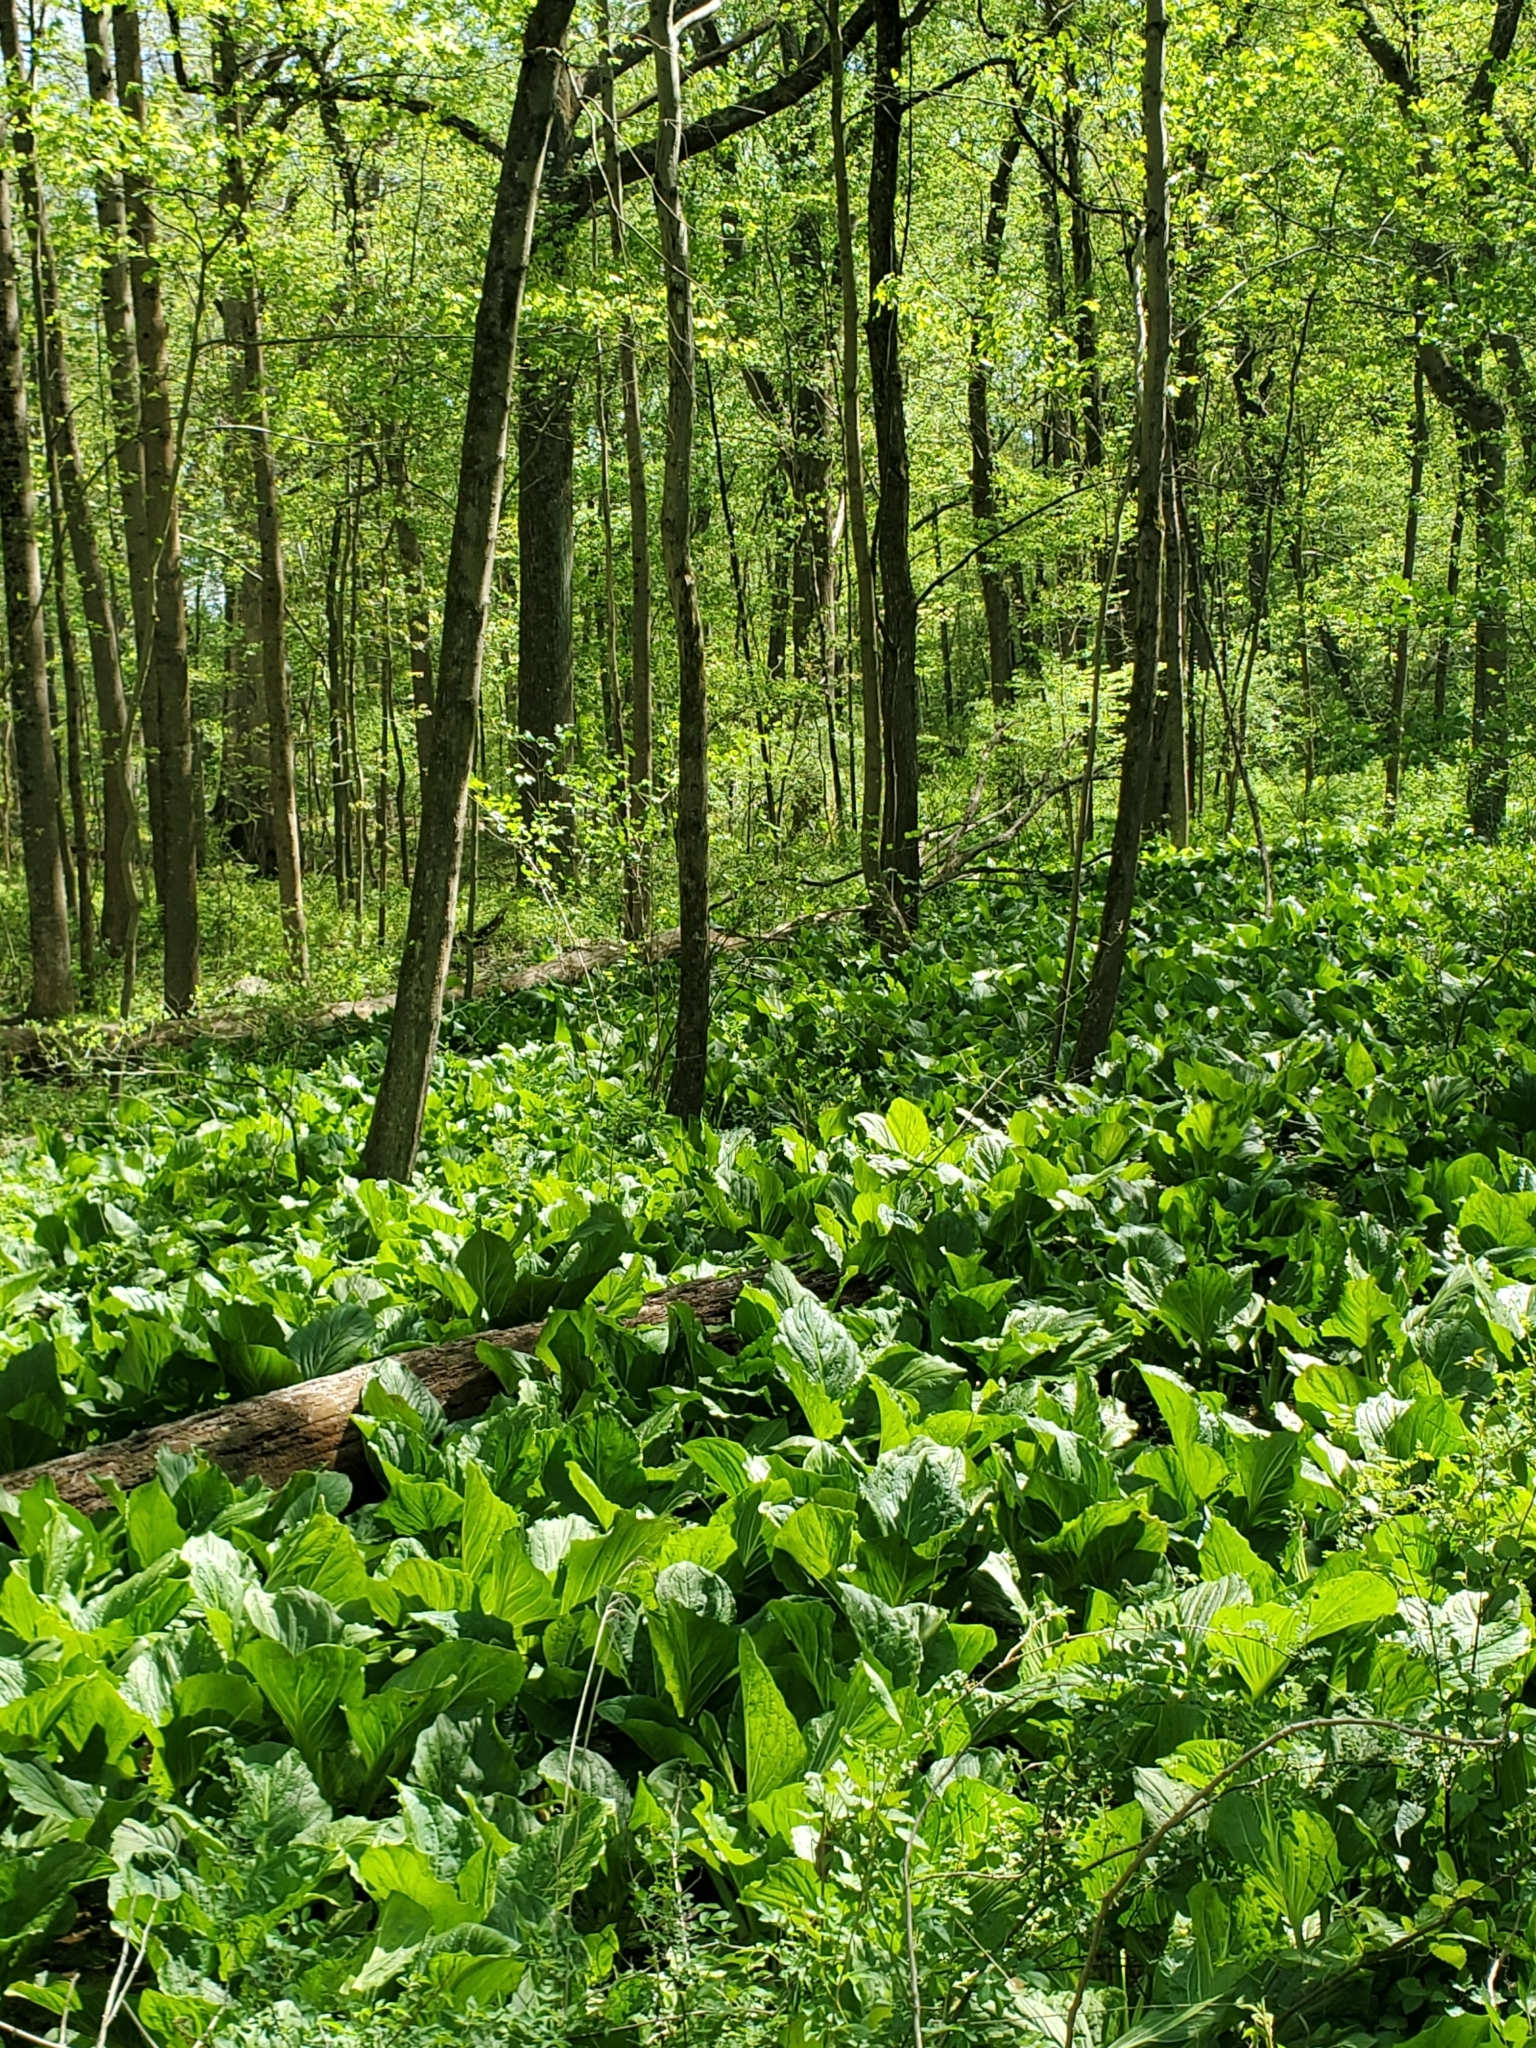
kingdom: Plantae
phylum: Tracheophyta
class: Liliopsida
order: Alismatales
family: Araceae
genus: Symplocarpus
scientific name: Symplocarpus foetidus
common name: Eastern skunk cabbage
